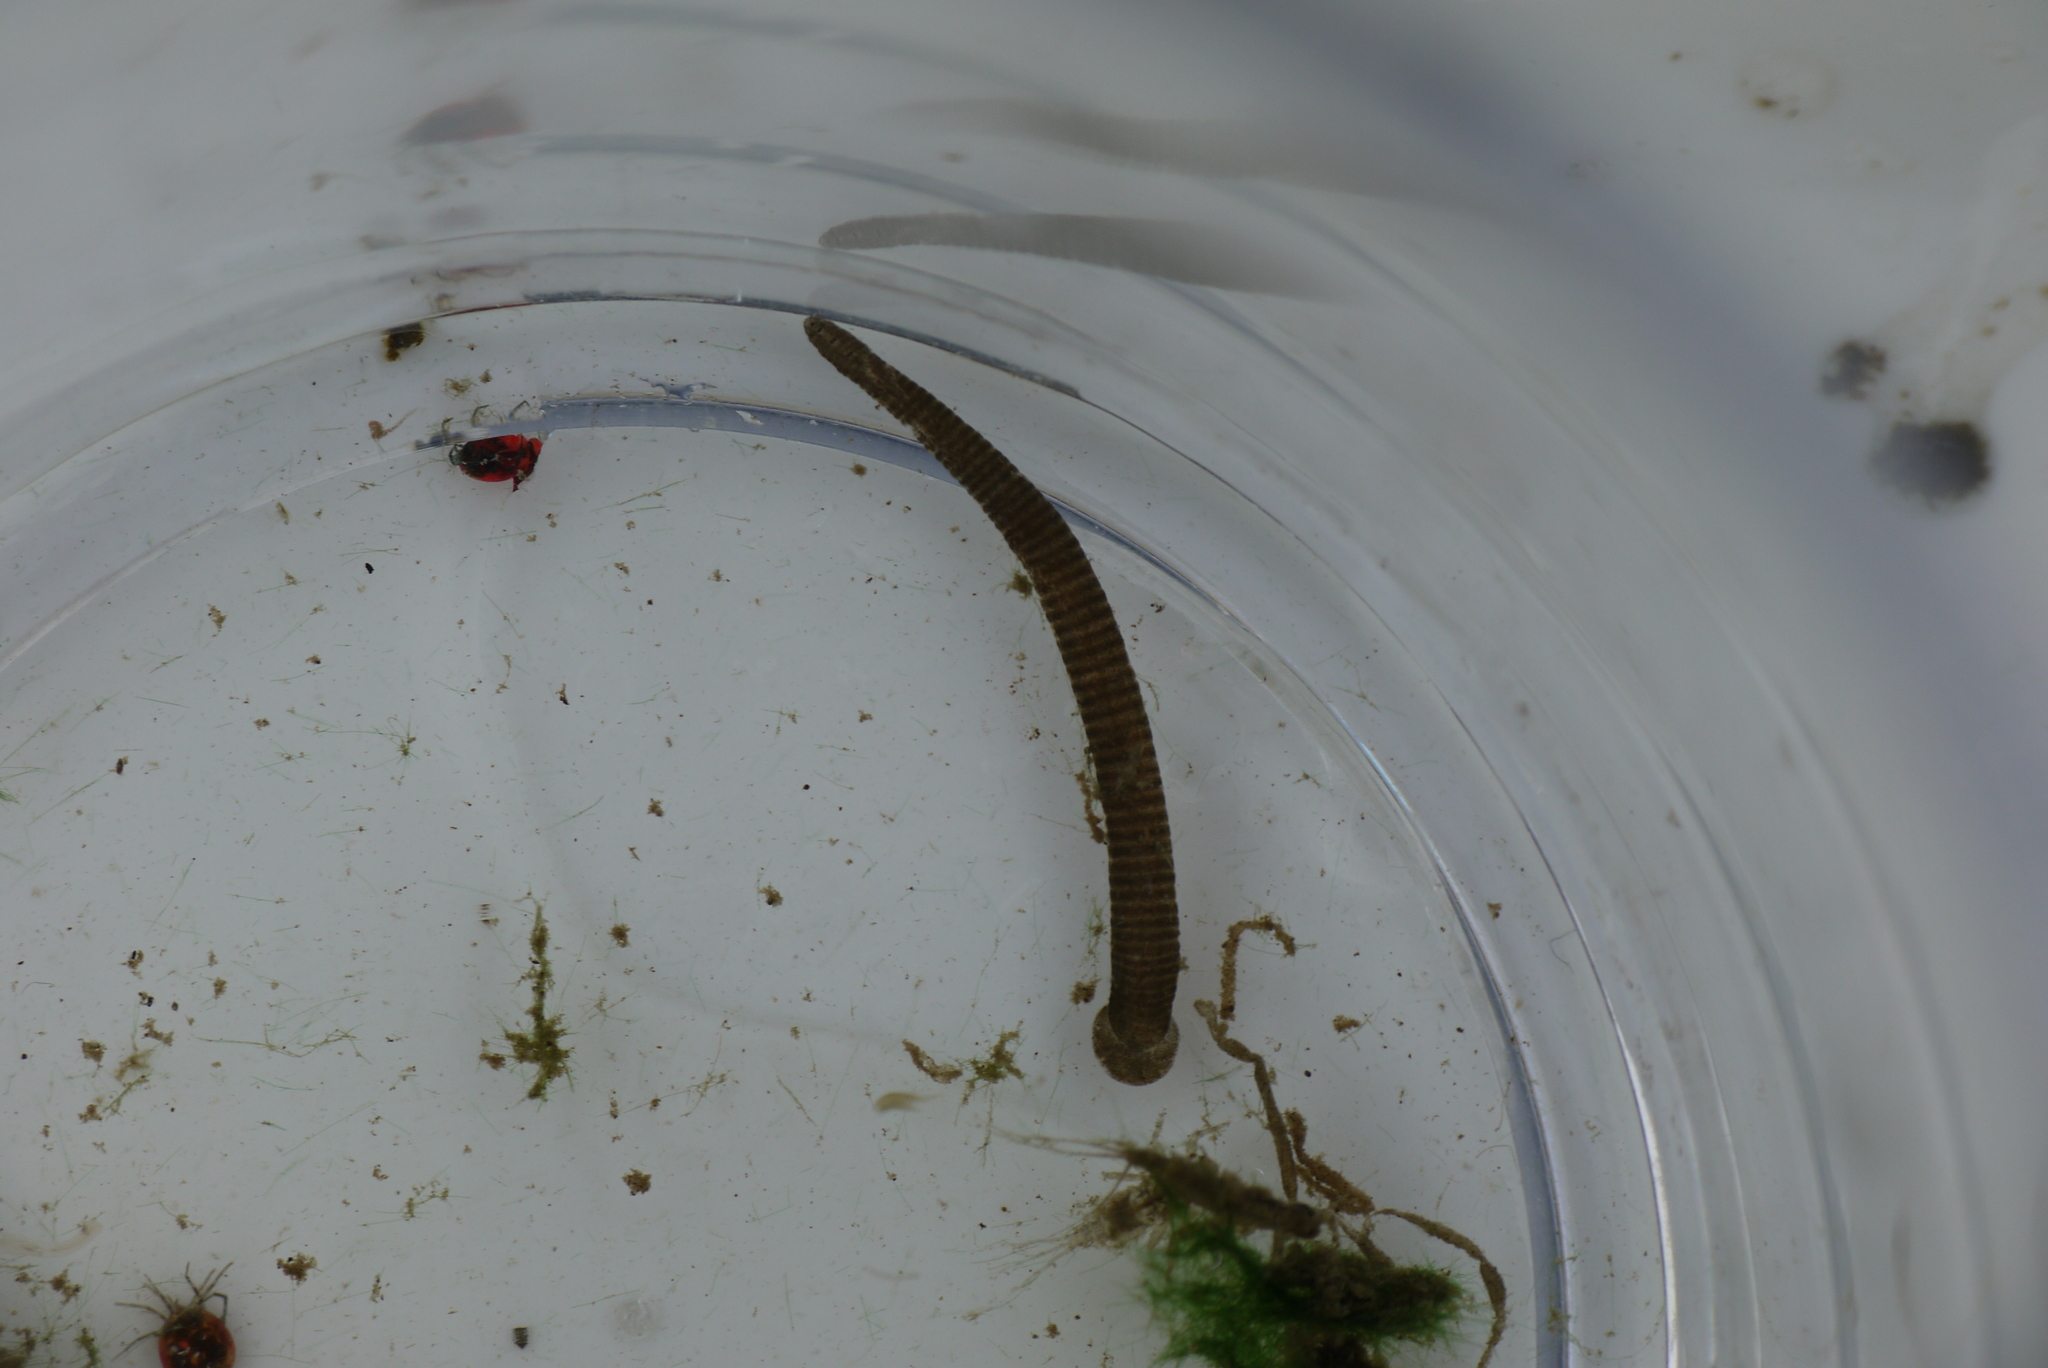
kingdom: Animalia
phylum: Annelida
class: Clitellata
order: Rhynchobdellida
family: Glossiphoniidae
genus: Theromyzon
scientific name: Theromyzon tessulatum
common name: Duck leech
